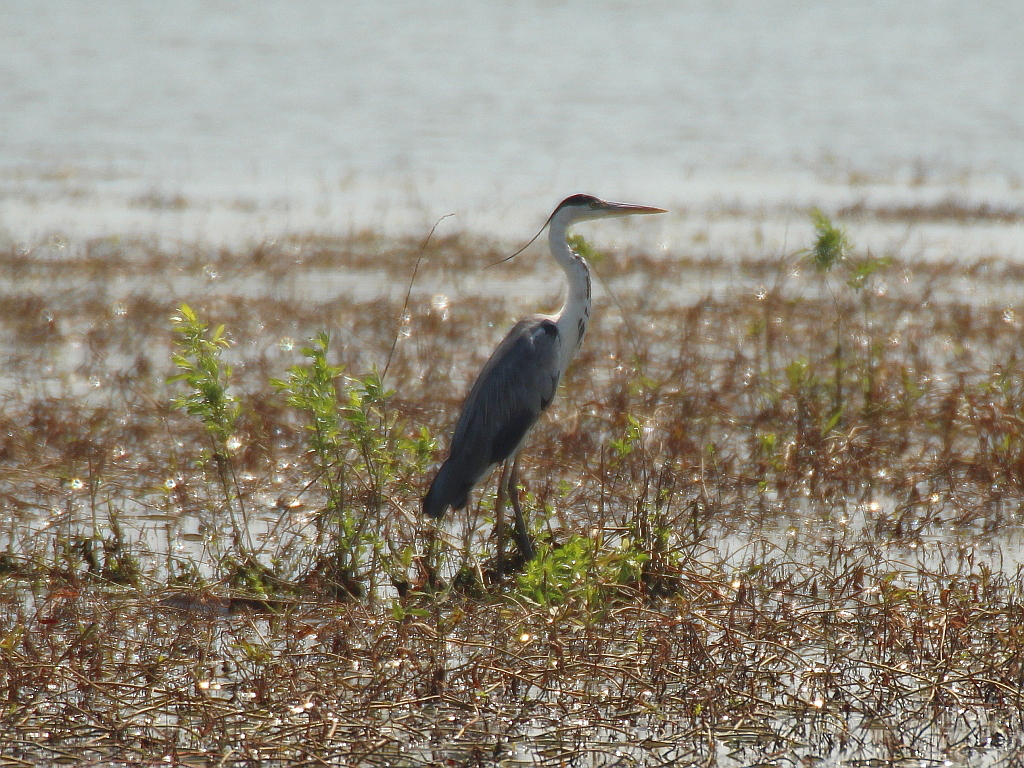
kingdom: Animalia
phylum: Chordata
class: Aves
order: Pelecaniformes
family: Ardeidae
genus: Ardea
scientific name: Ardea cinerea
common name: Grey heron
